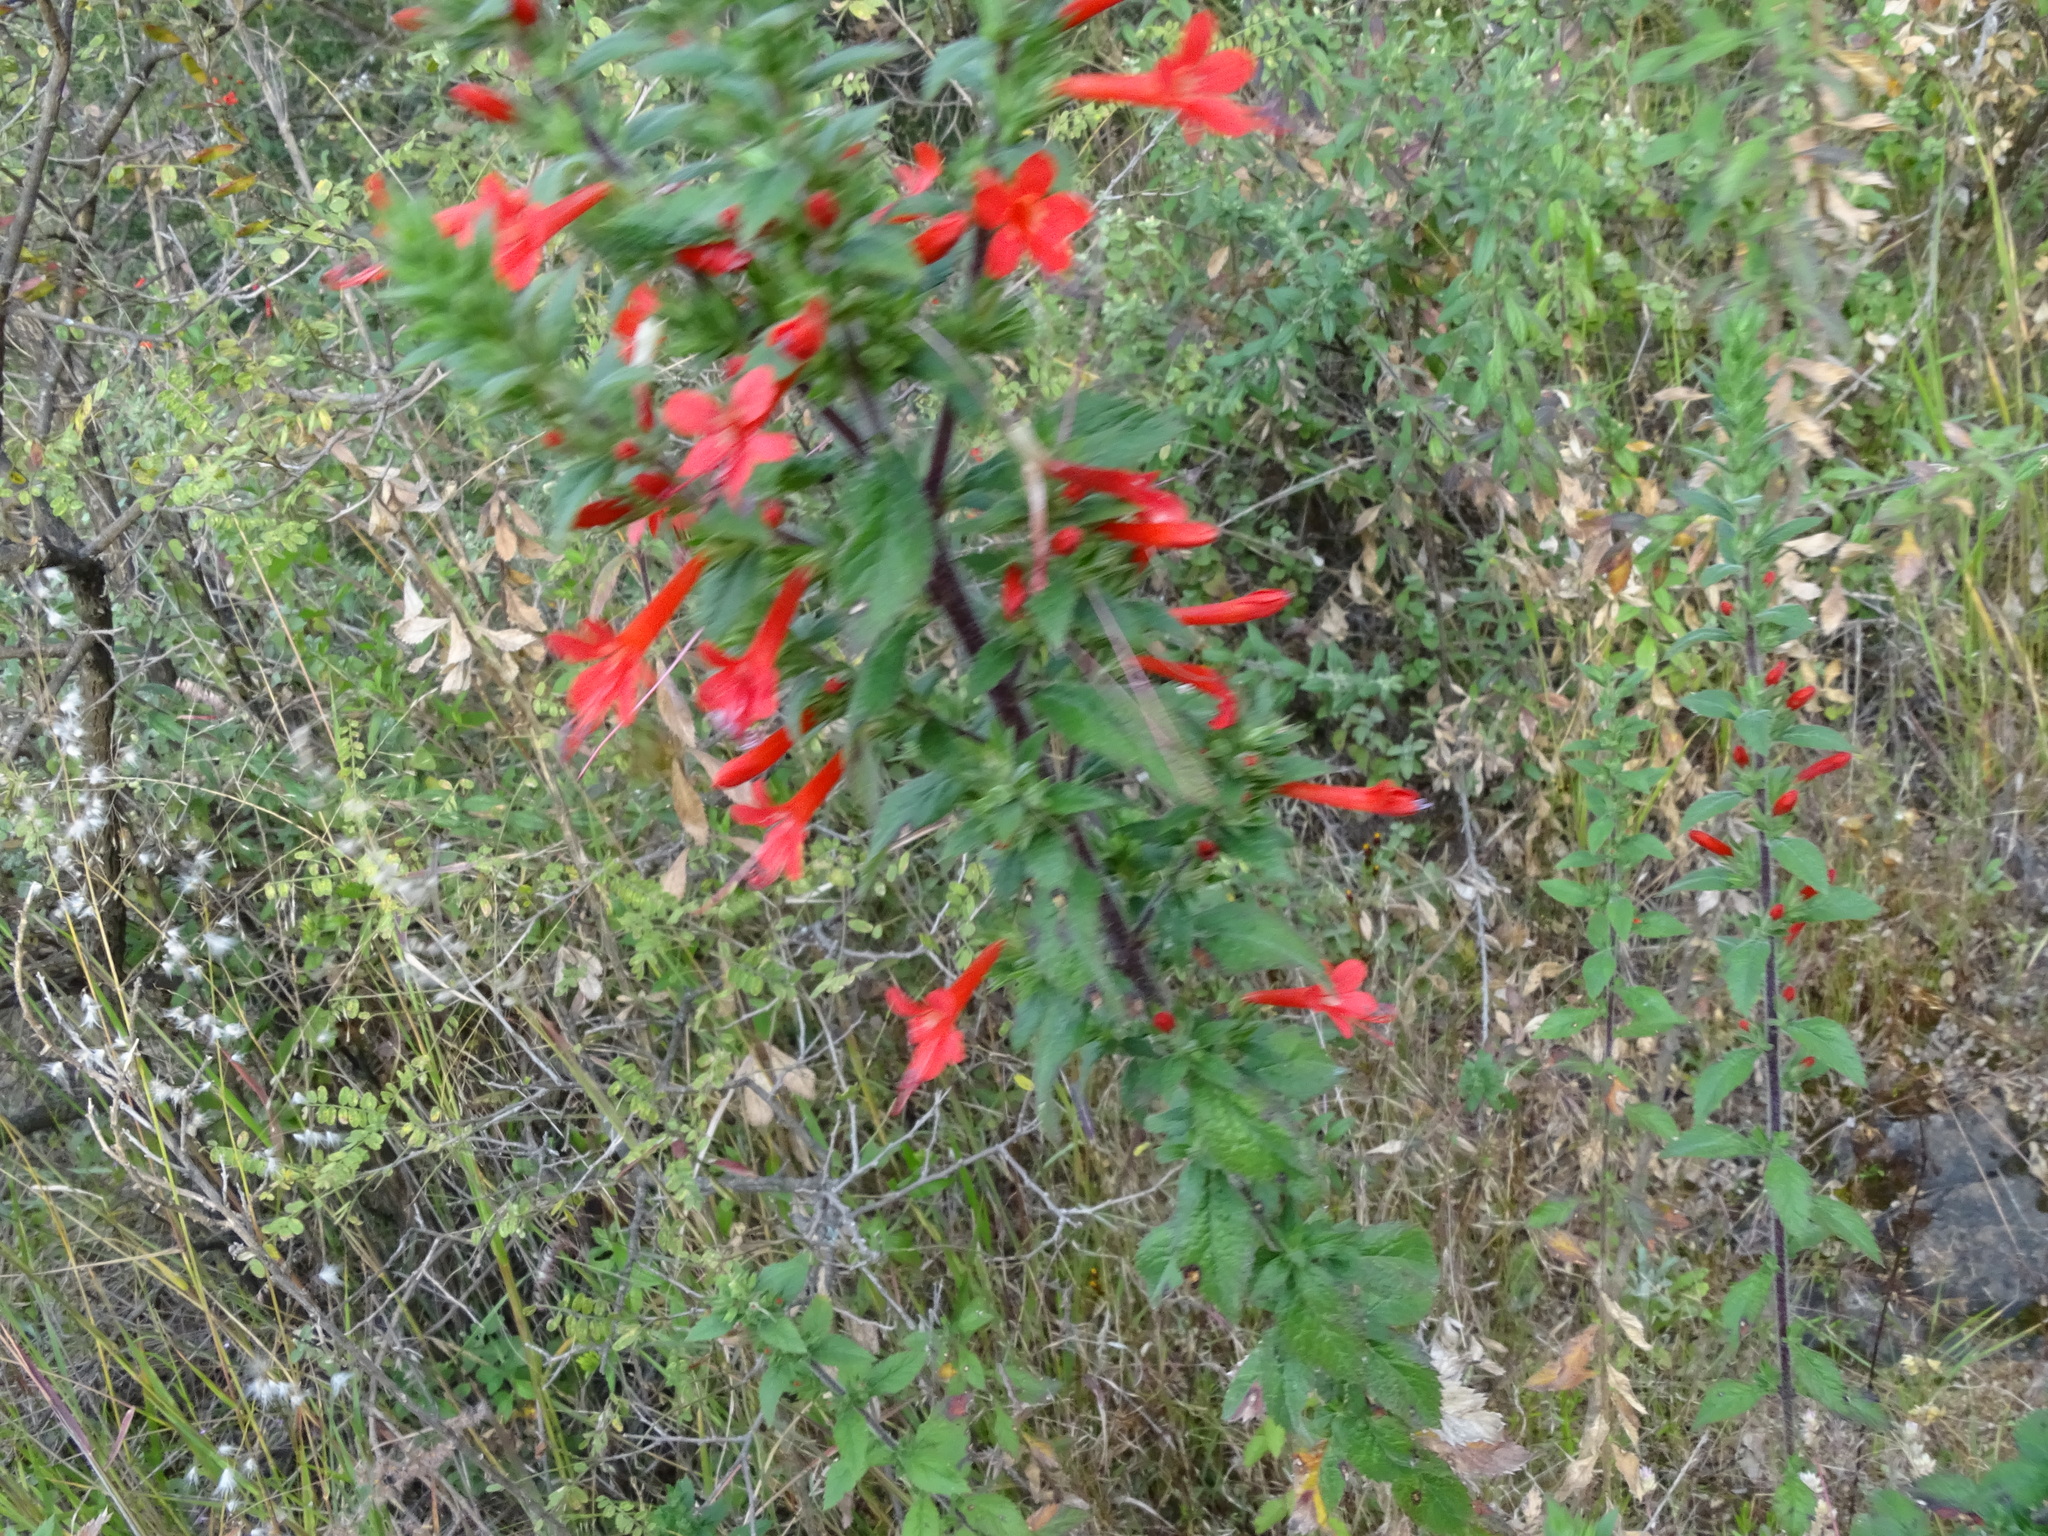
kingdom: Plantae
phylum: Tracheophyta
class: Magnoliopsida
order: Ericales
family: Polemoniaceae
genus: Loeselia
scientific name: Loeselia mexicana
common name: Mexican false calico
